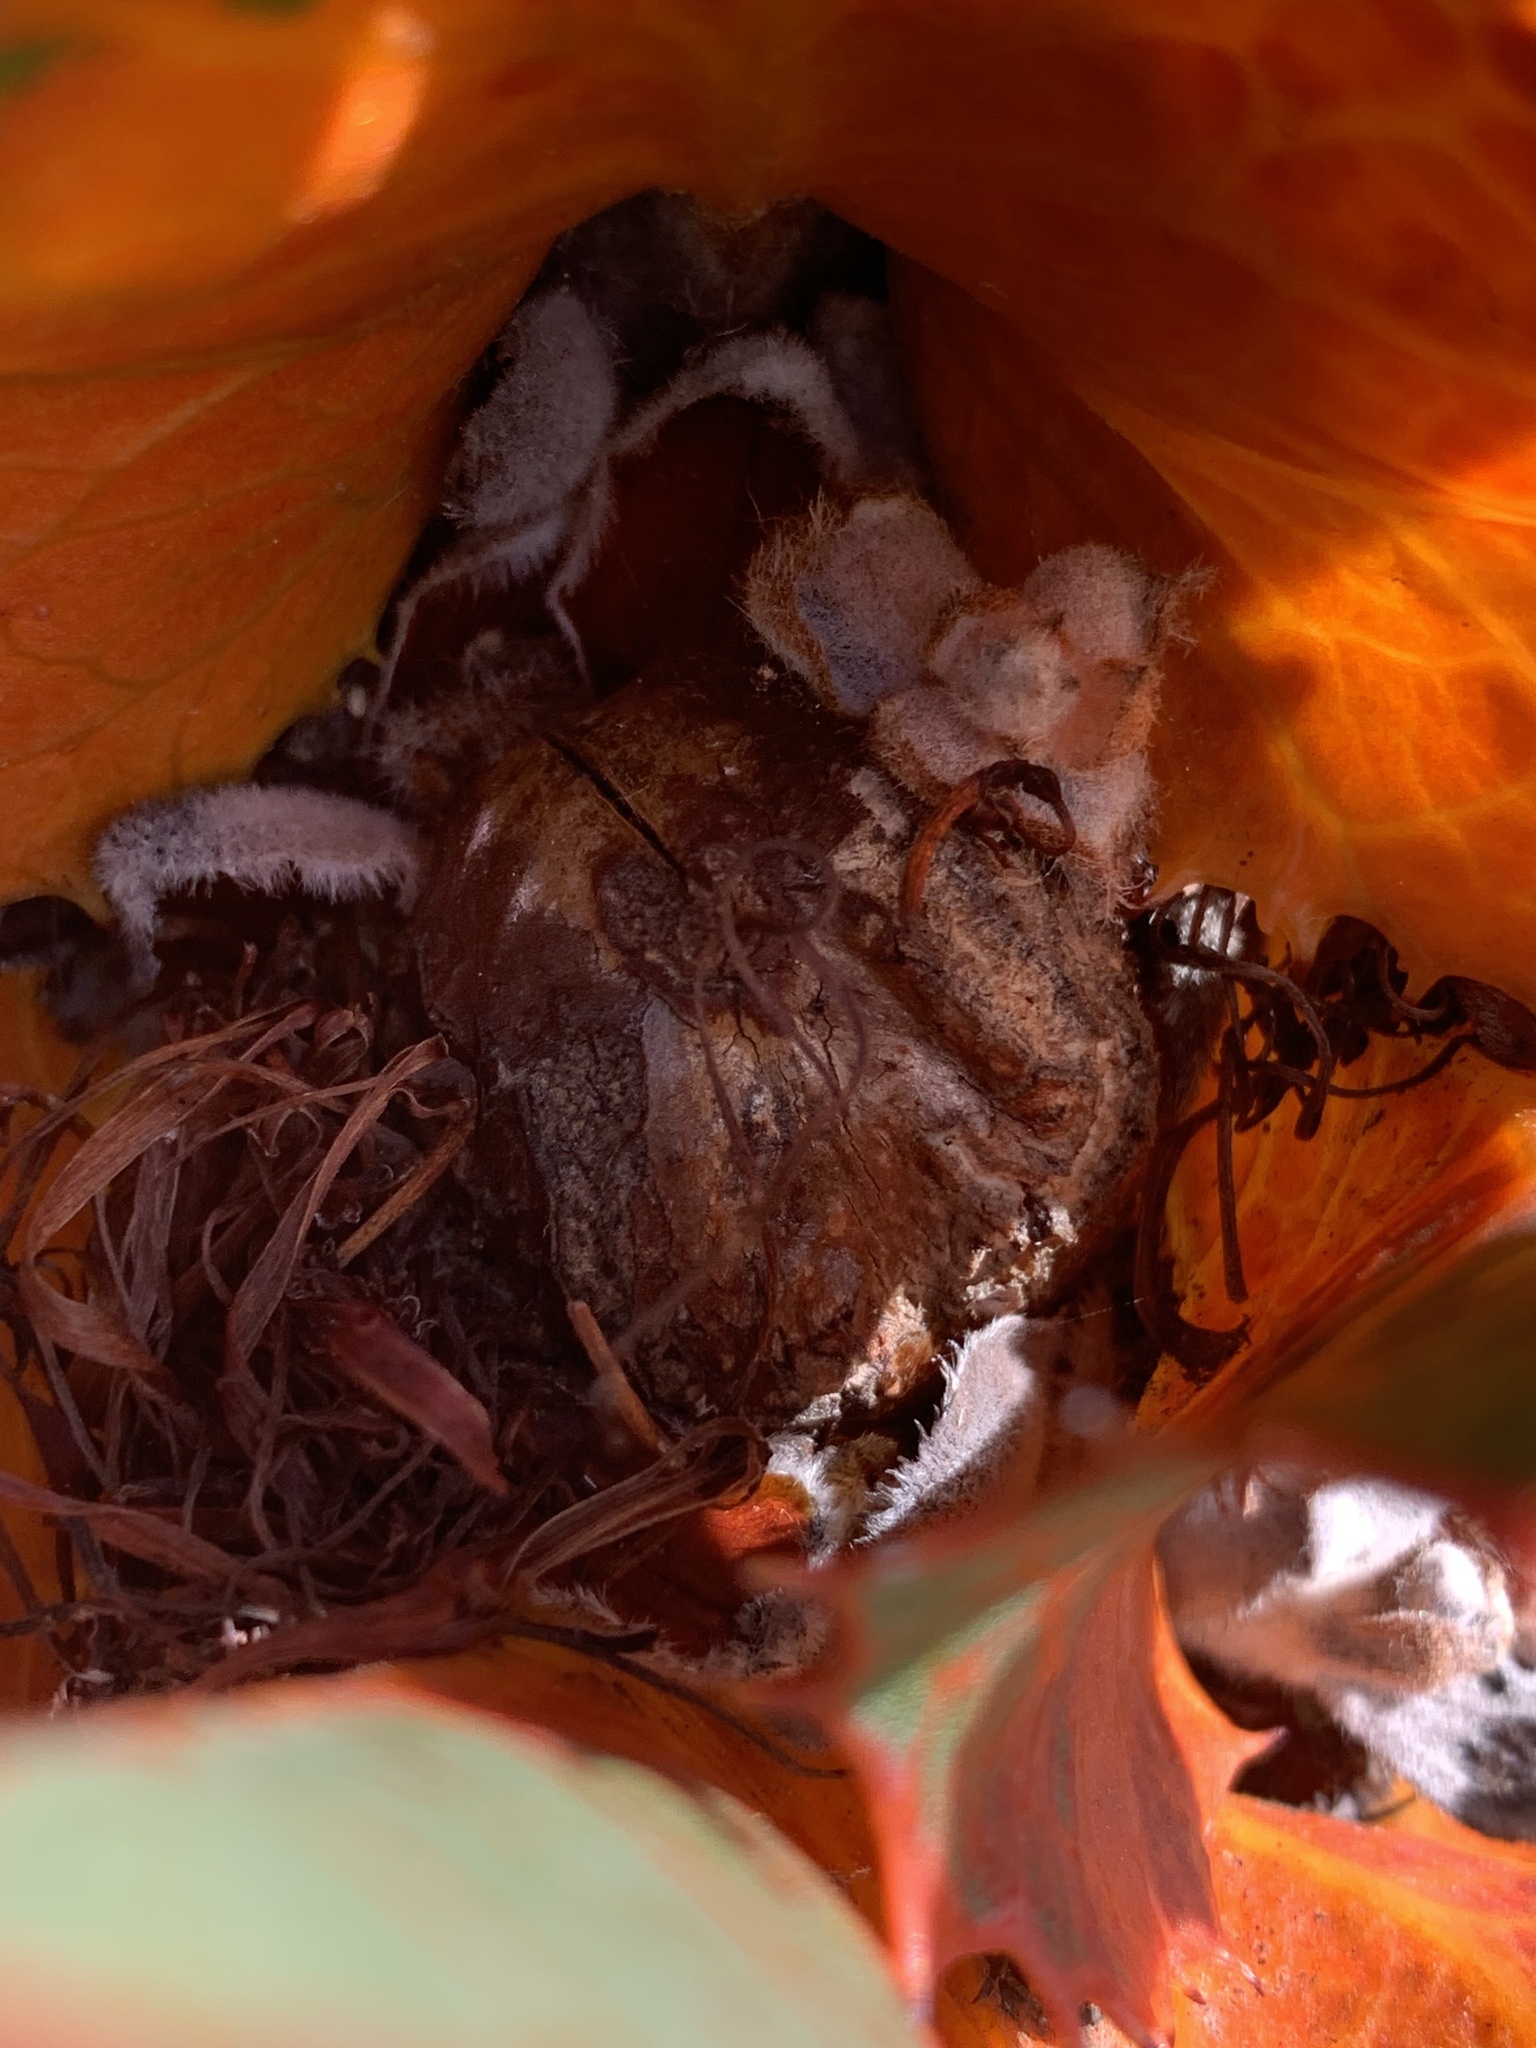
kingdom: Plantae
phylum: Tracheophyta
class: Magnoliopsida
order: Proteales
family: Proteaceae
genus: Hakea
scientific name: Hakea victoria
